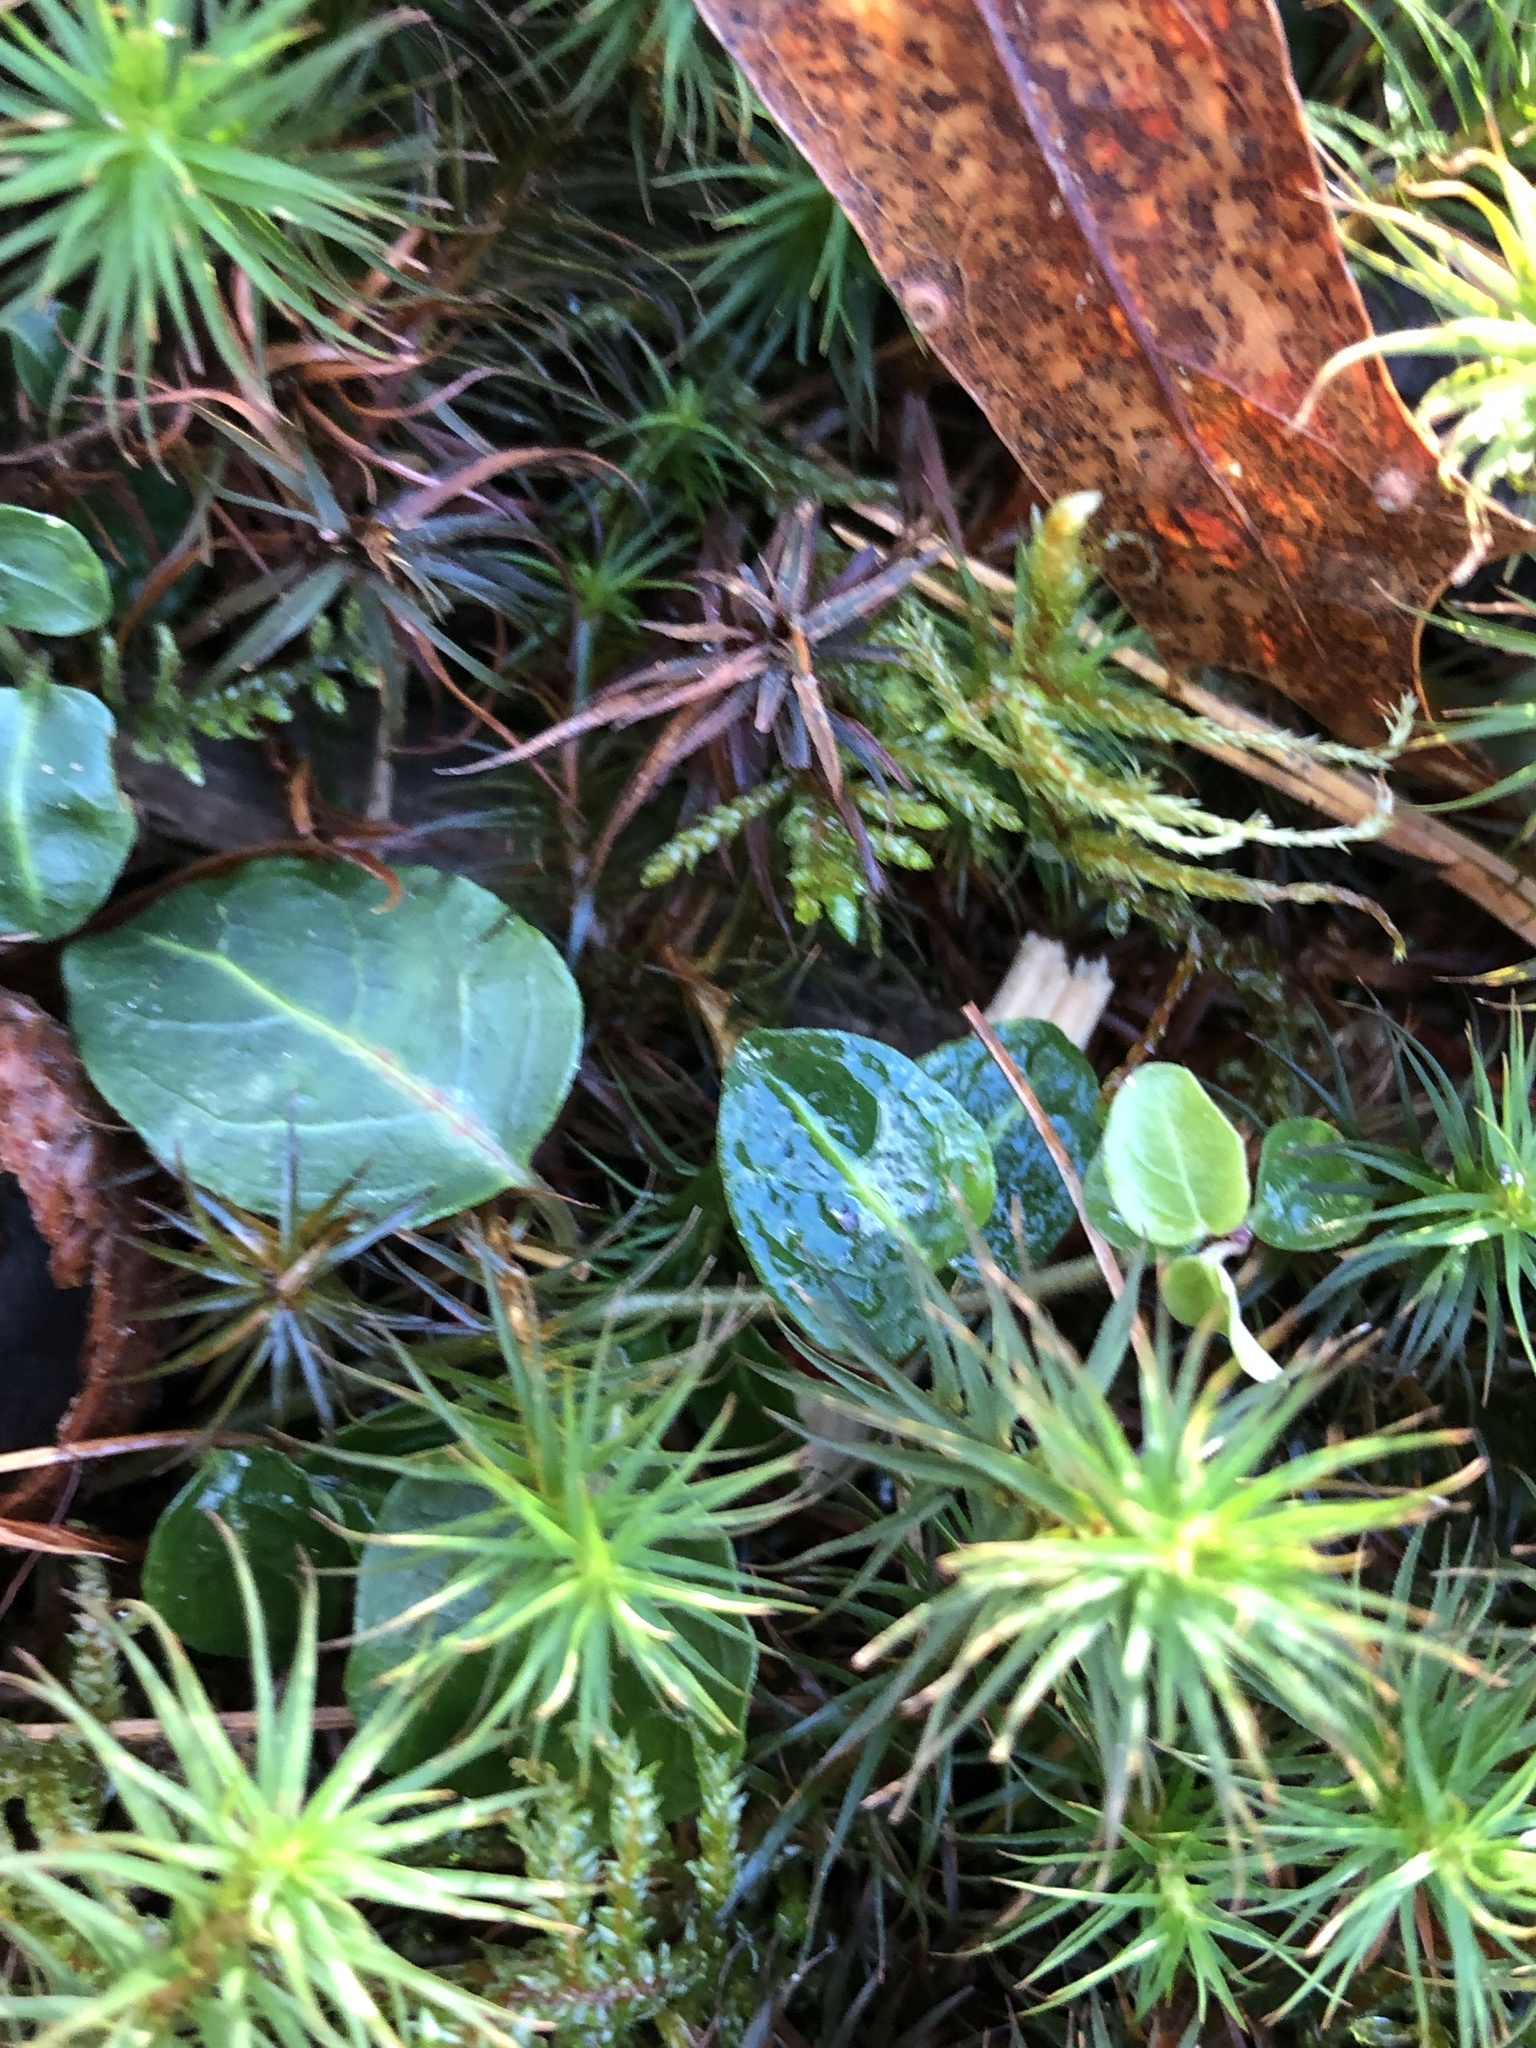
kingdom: Plantae
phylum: Tracheophyta
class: Magnoliopsida
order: Gentianales
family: Rubiaceae
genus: Mitchella
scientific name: Mitchella repens
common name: Partridge-berry
